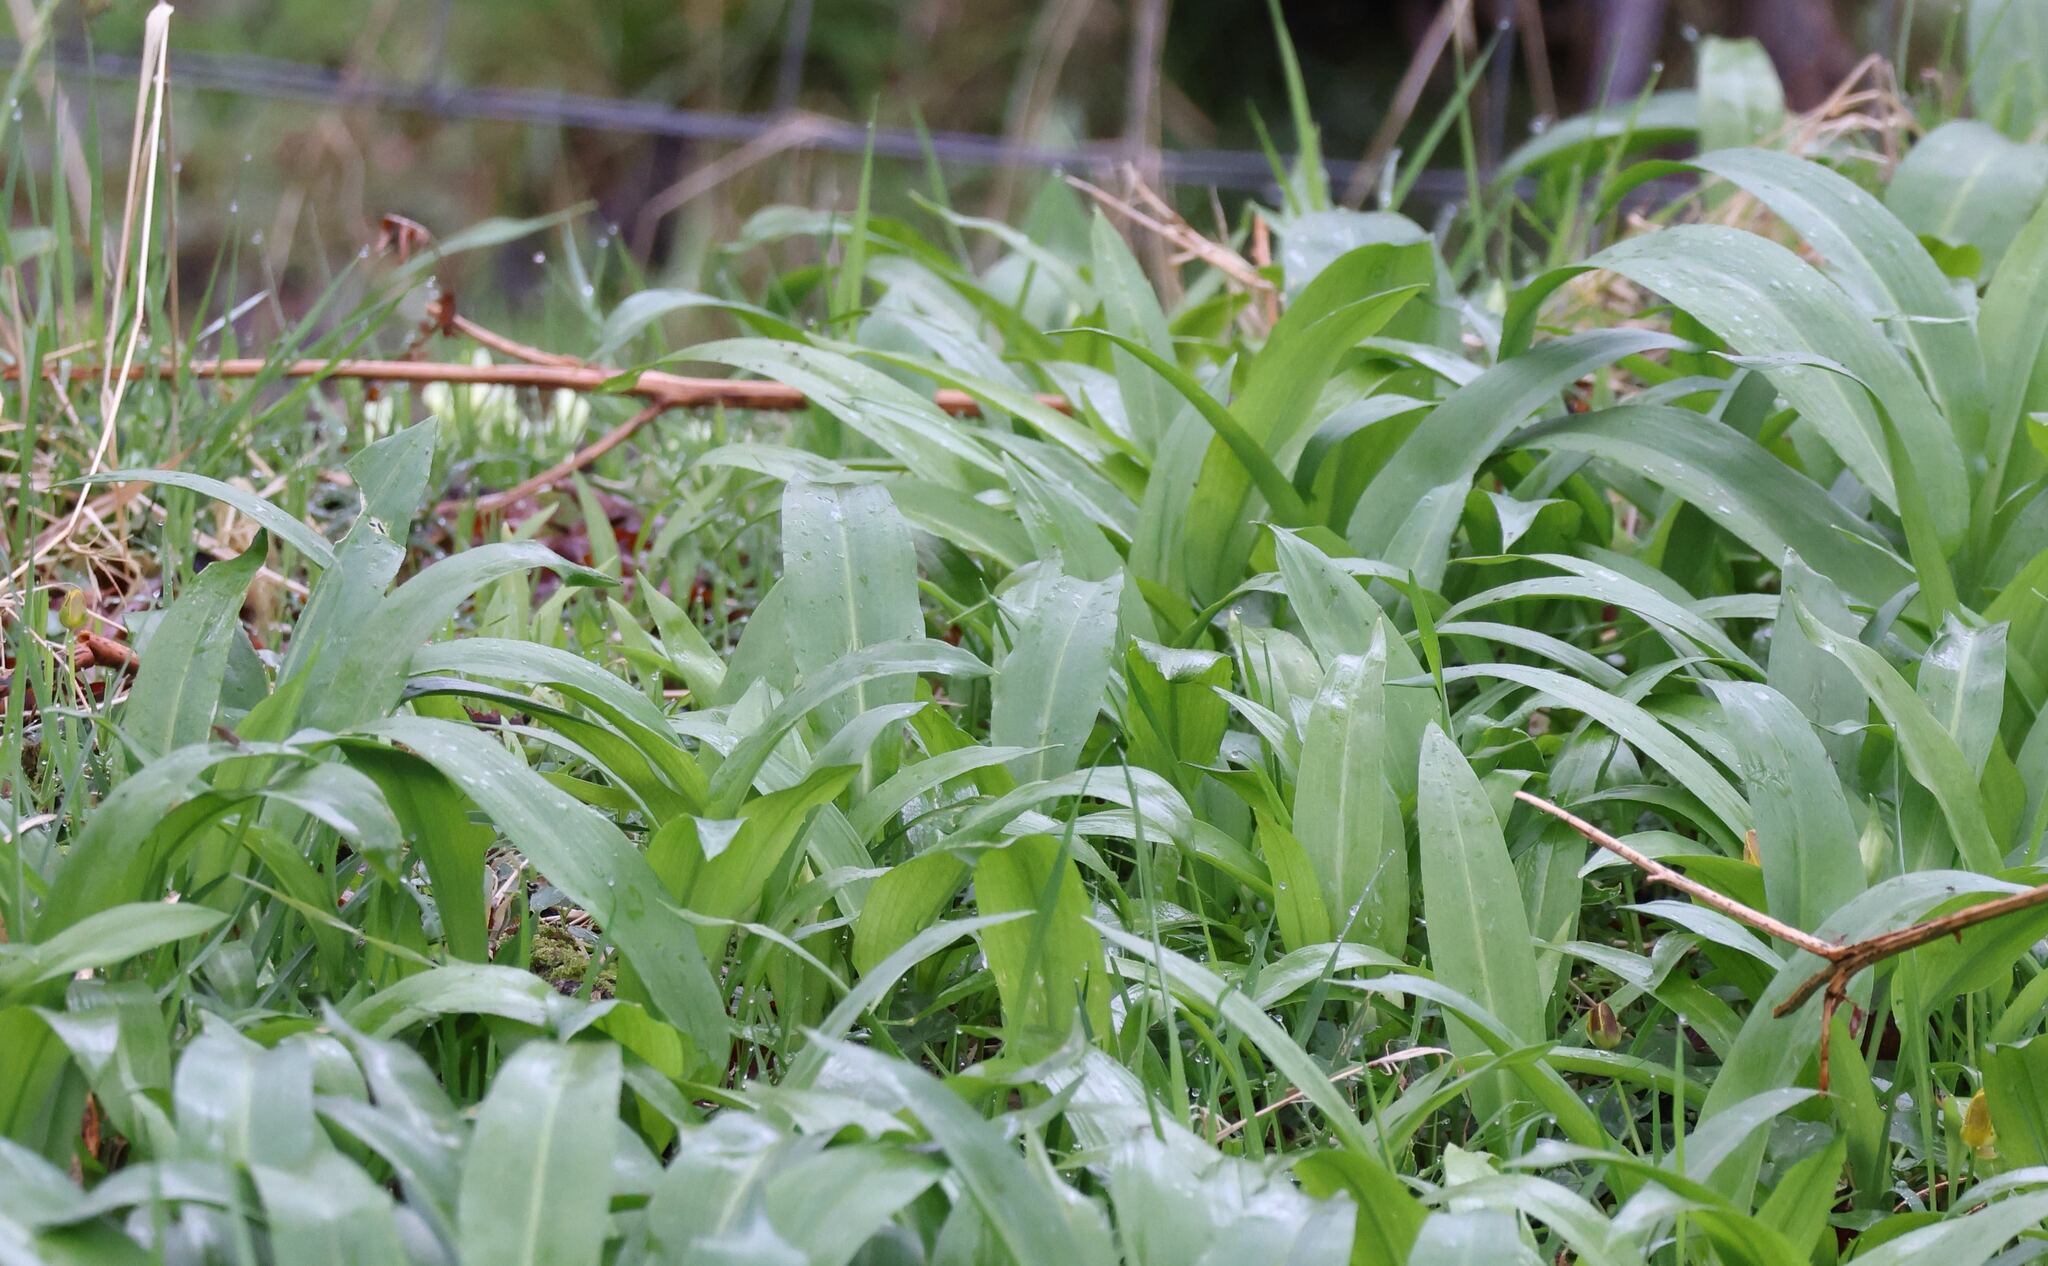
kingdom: Plantae
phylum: Tracheophyta
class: Liliopsida
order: Asparagales
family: Amaryllidaceae
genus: Allium
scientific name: Allium ursinum
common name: Ramsons
